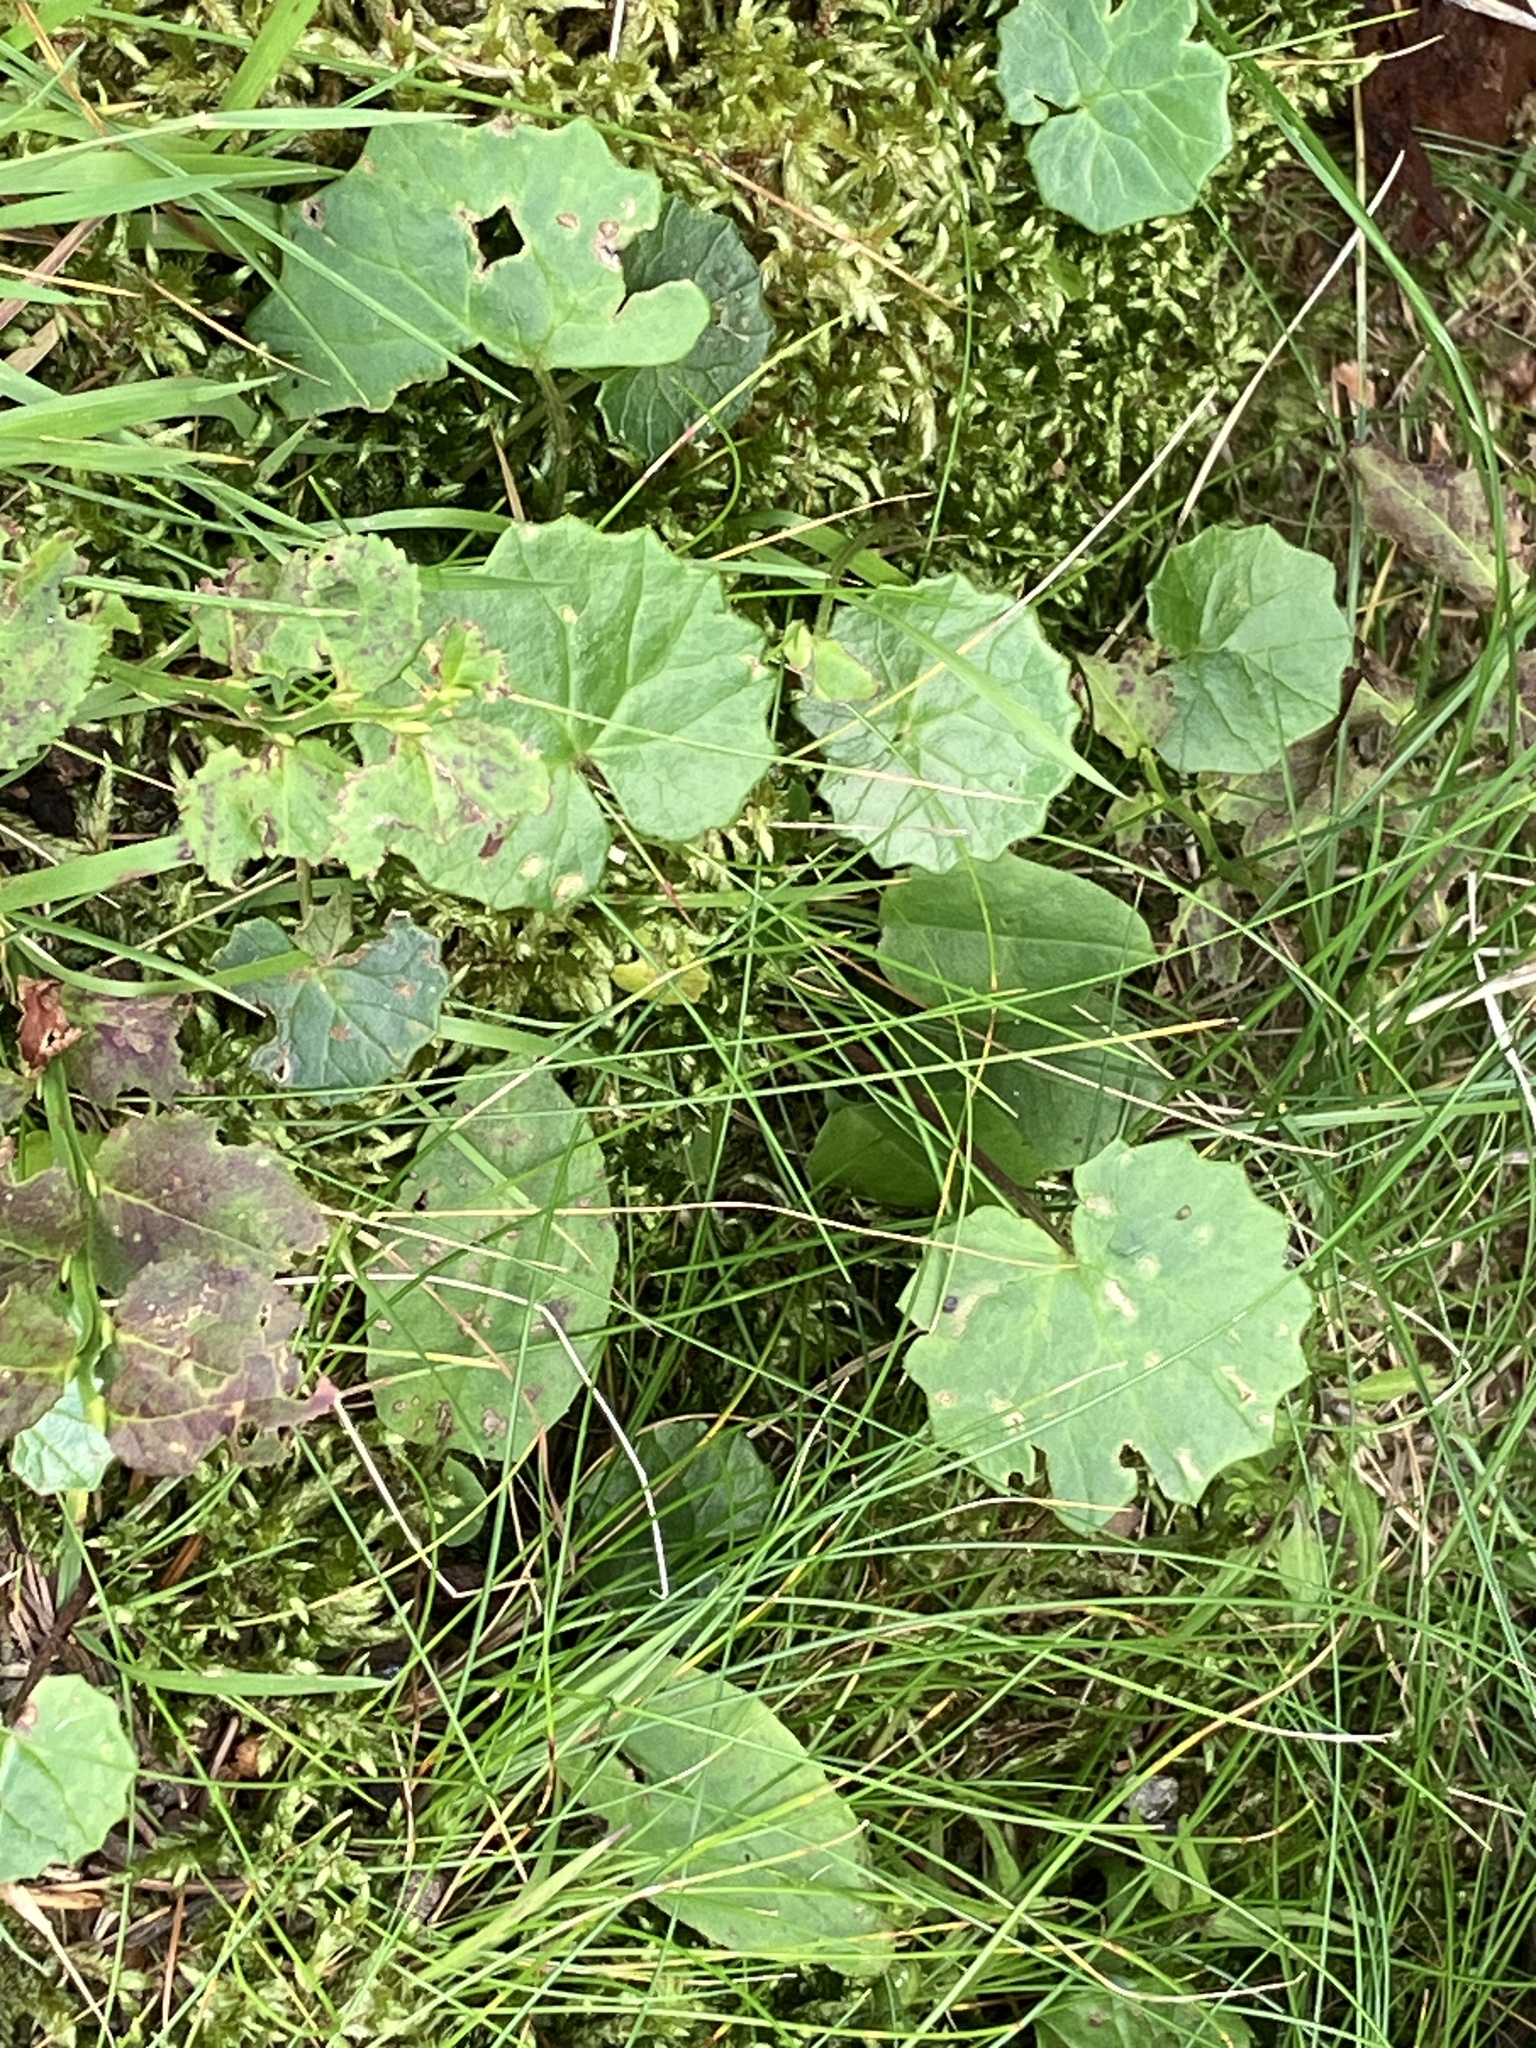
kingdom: Plantae
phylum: Tracheophyta
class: Magnoliopsida
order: Asterales
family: Asteraceae
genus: Homogyne
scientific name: Homogyne alpina
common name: Purple colt's-foot
